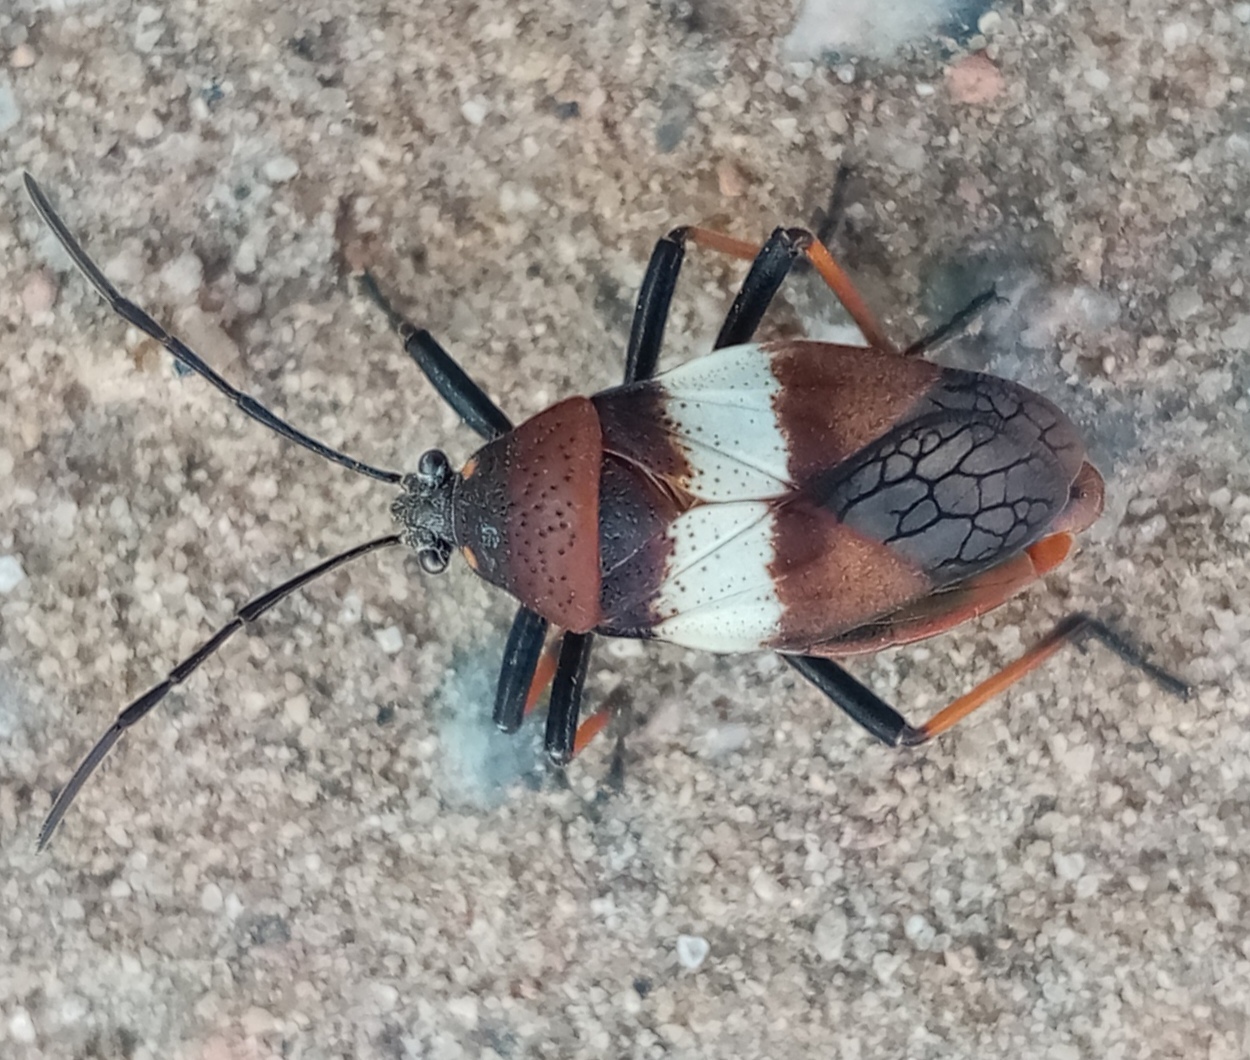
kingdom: Animalia
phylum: Arthropoda
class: Insecta
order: Hemiptera
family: Largidae
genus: Largus
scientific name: Largus balteatus
